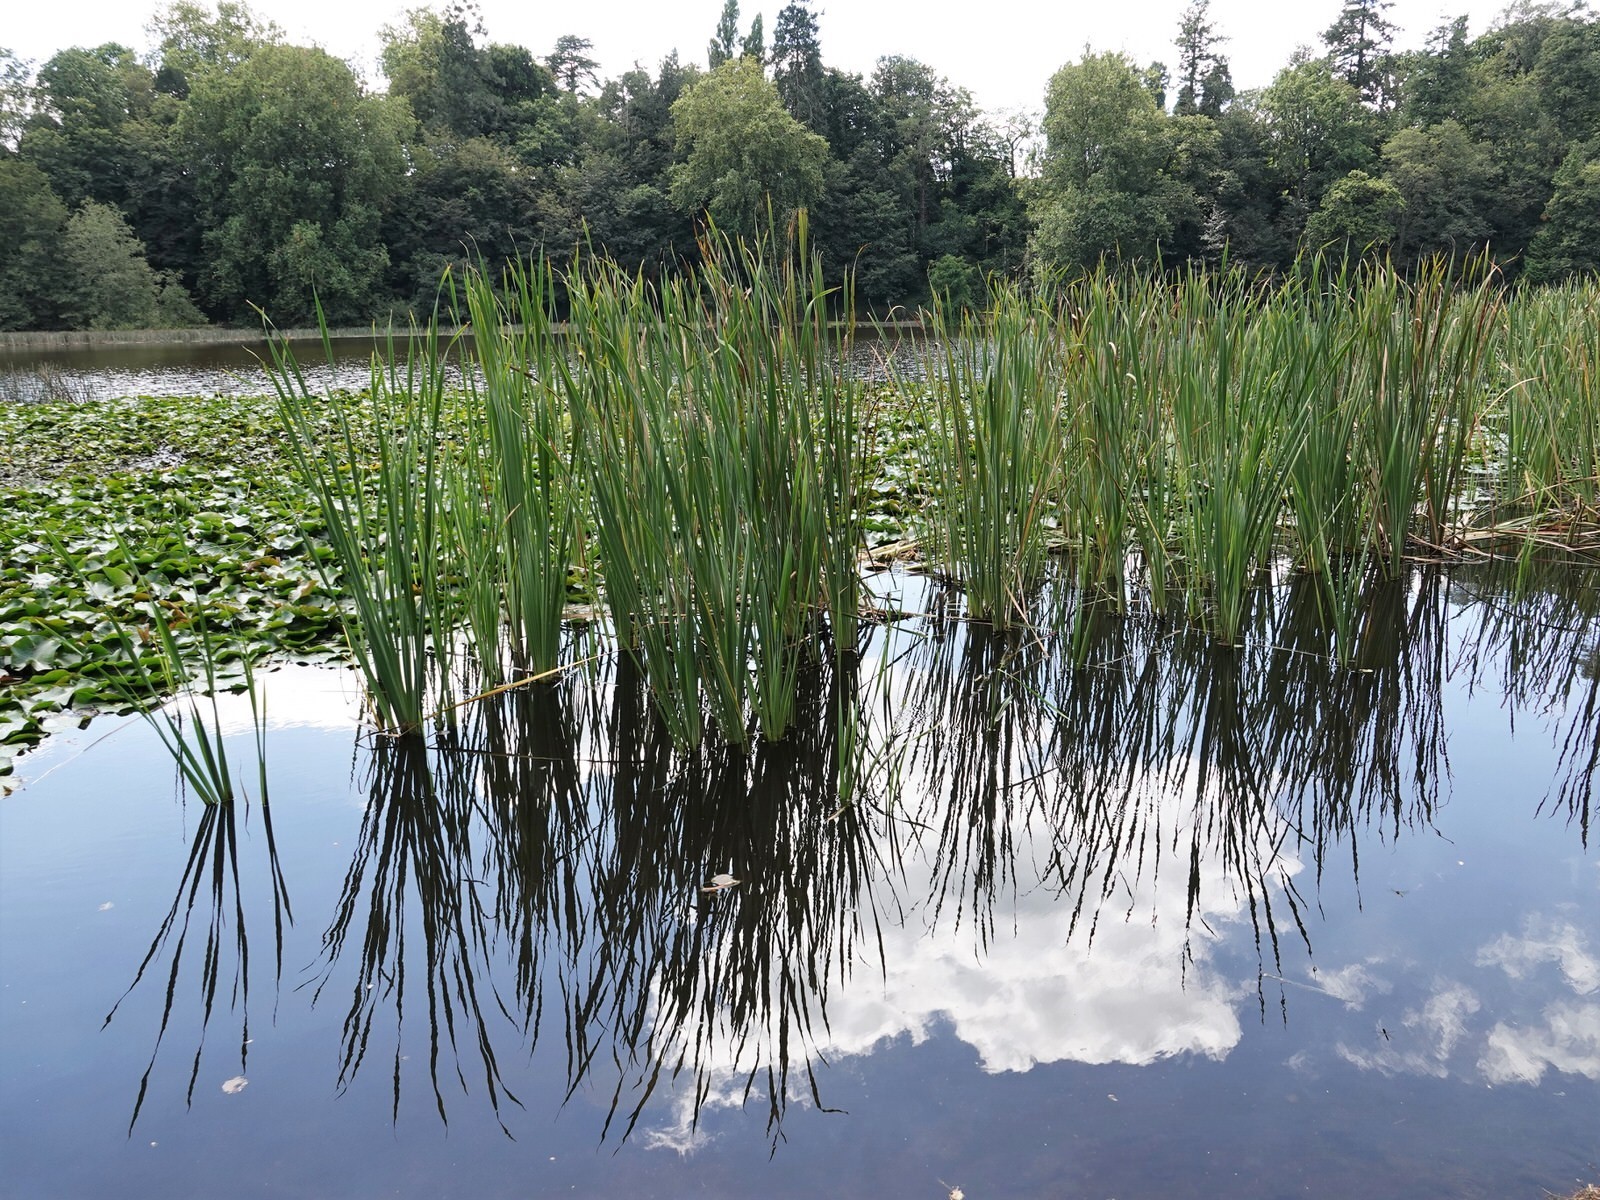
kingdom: Plantae
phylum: Tracheophyta
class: Liliopsida
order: Poales
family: Typhaceae
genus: Typha
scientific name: Typha orientalis
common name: Bullrush
